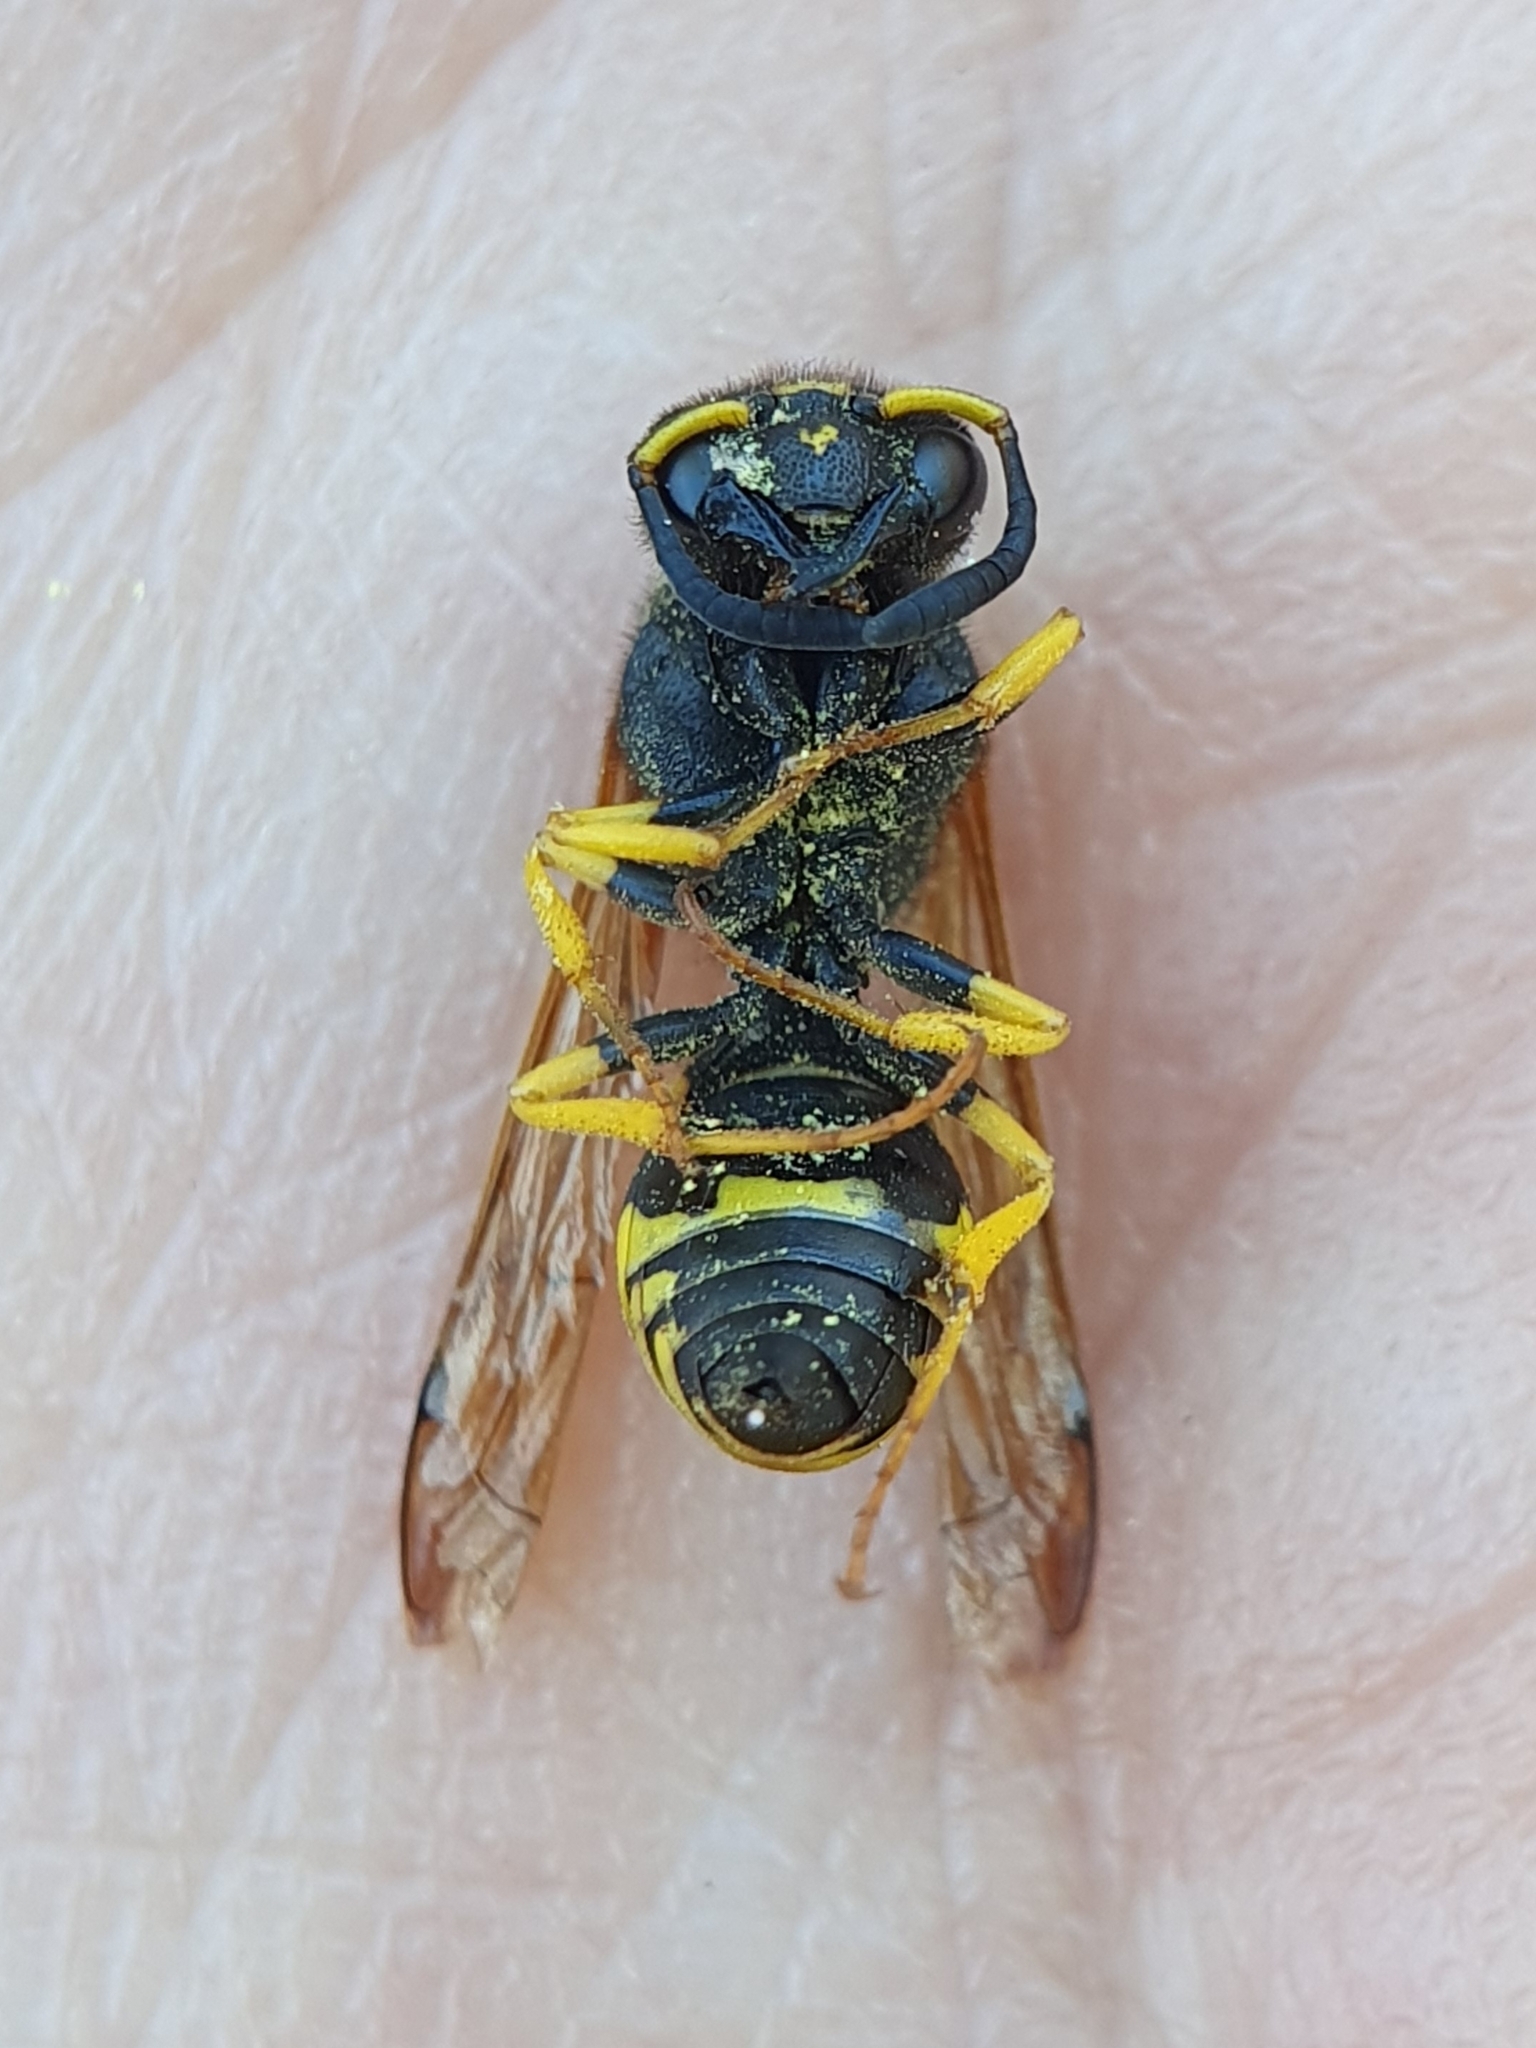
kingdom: Animalia
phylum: Arthropoda
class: Insecta
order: Hymenoptera
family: Vespidae
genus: Odynerus
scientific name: Odynerus consobrinus
